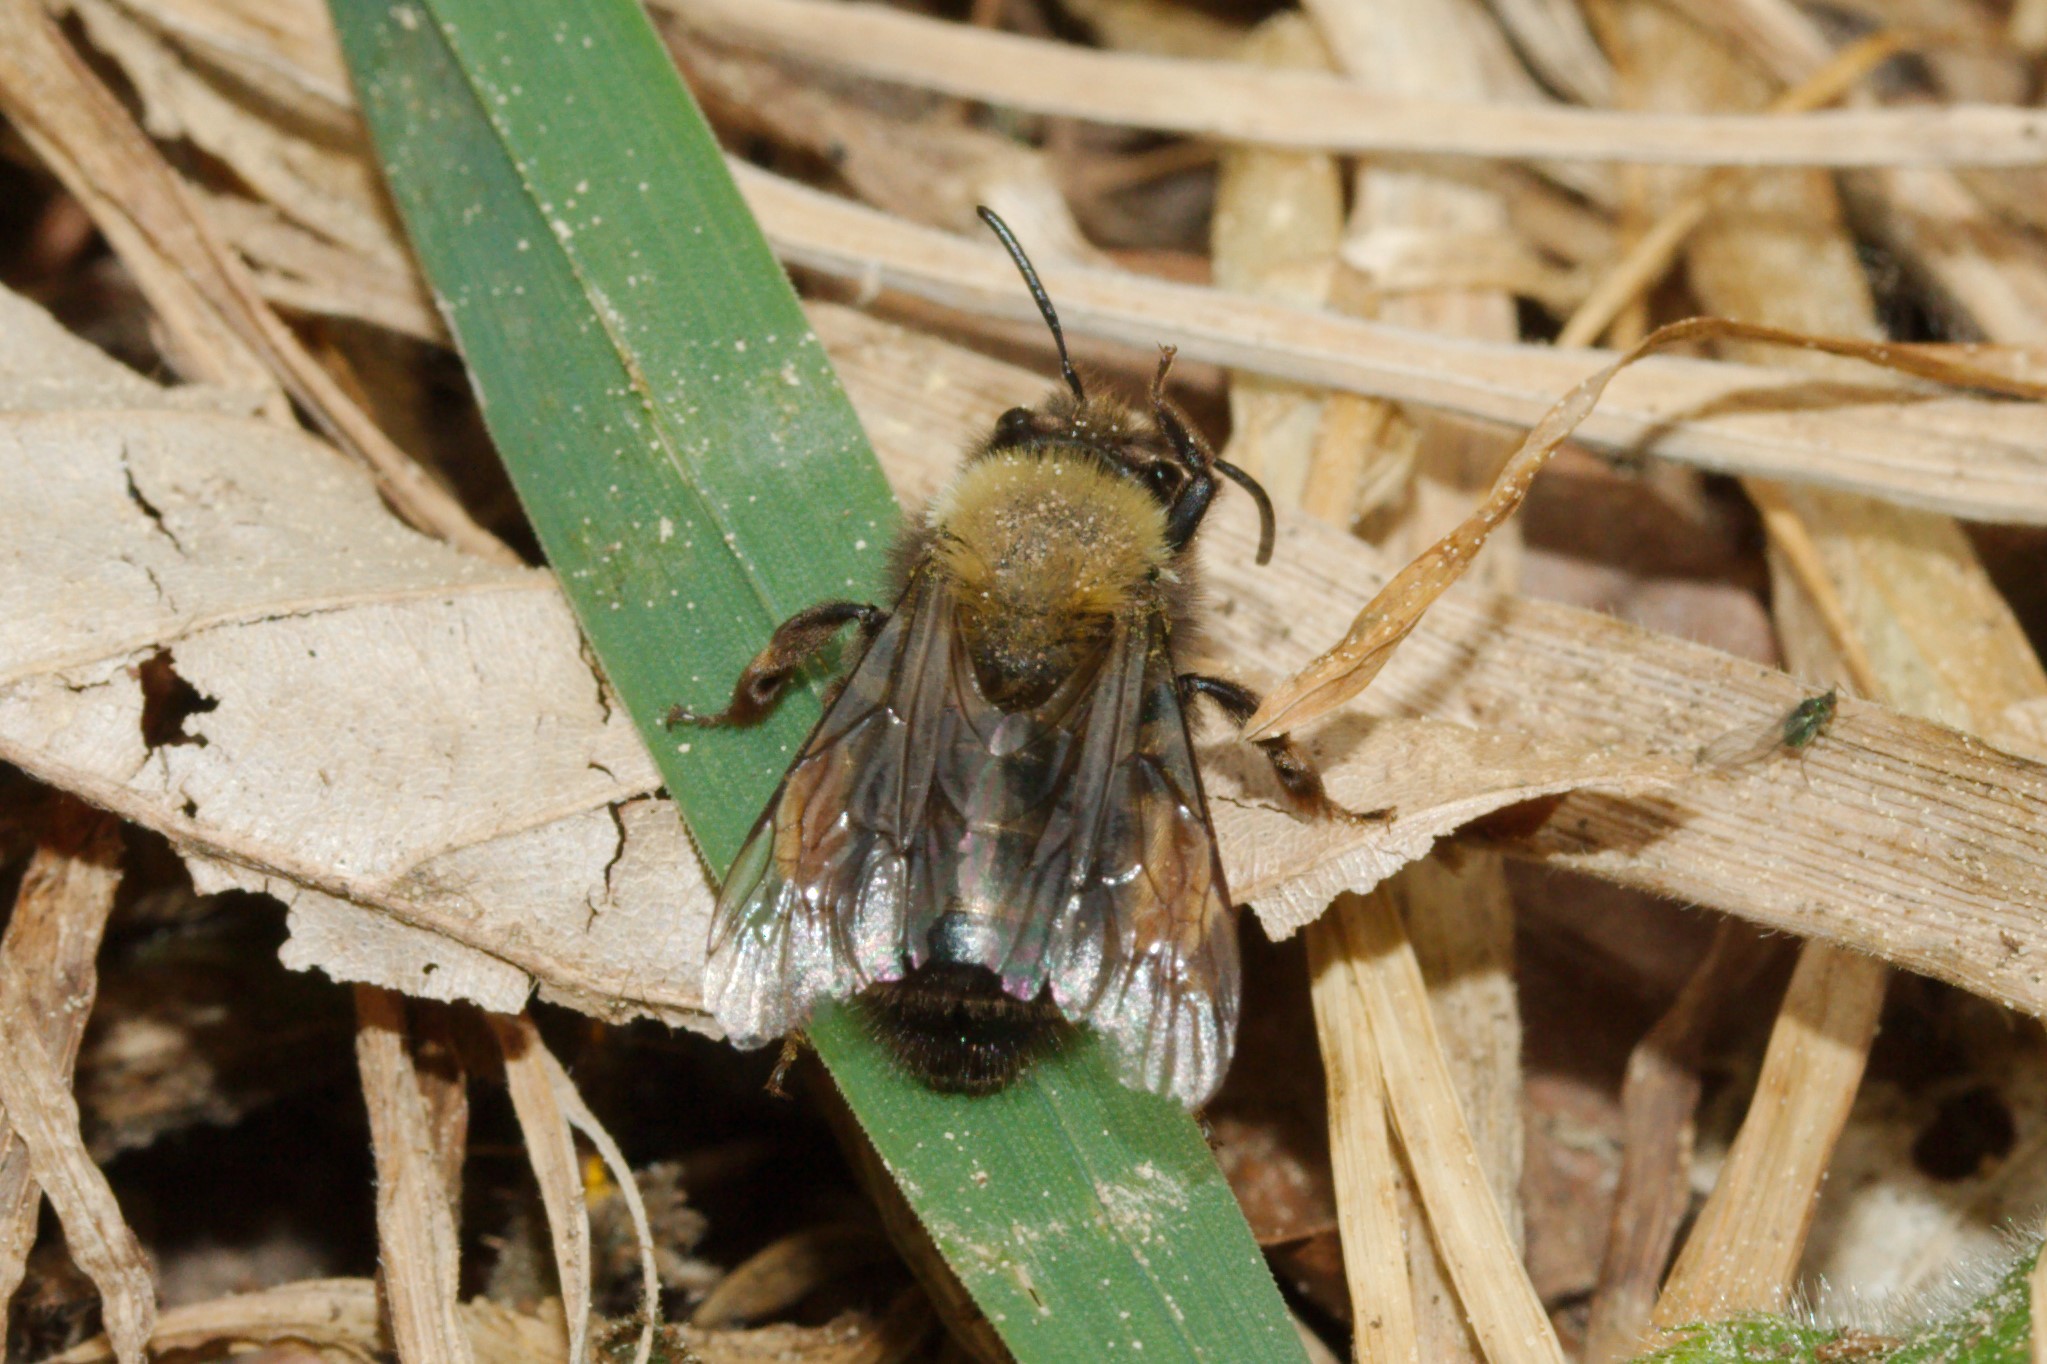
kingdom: Animalia
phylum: Arthropoda
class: Insecta
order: Hymenoptera
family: Andrenidae
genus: Andrena
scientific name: Andrena clarkella
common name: Clarke's mining bee
